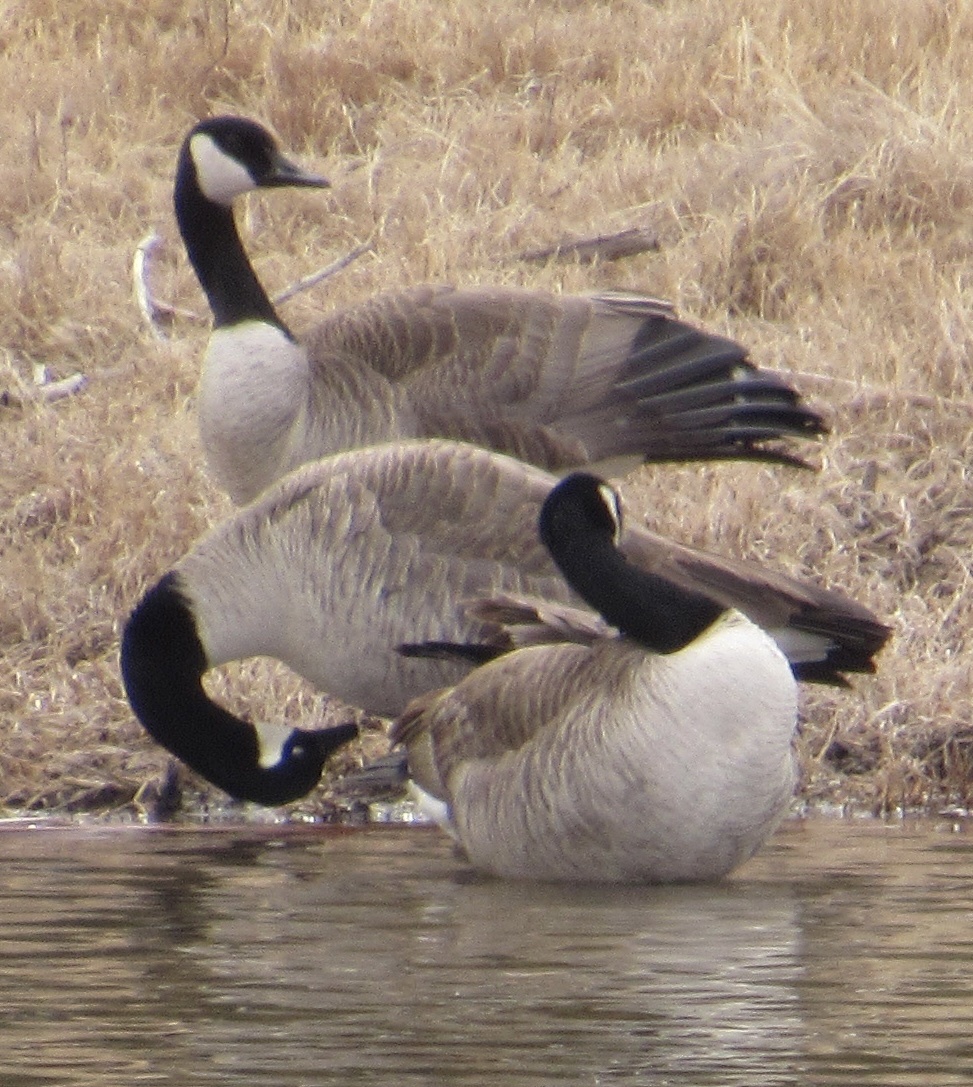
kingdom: Animalia
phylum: Chordata
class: Aves
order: Anseriformes
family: Anatidae
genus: Branta
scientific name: Branta canadensis
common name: Canada goose
